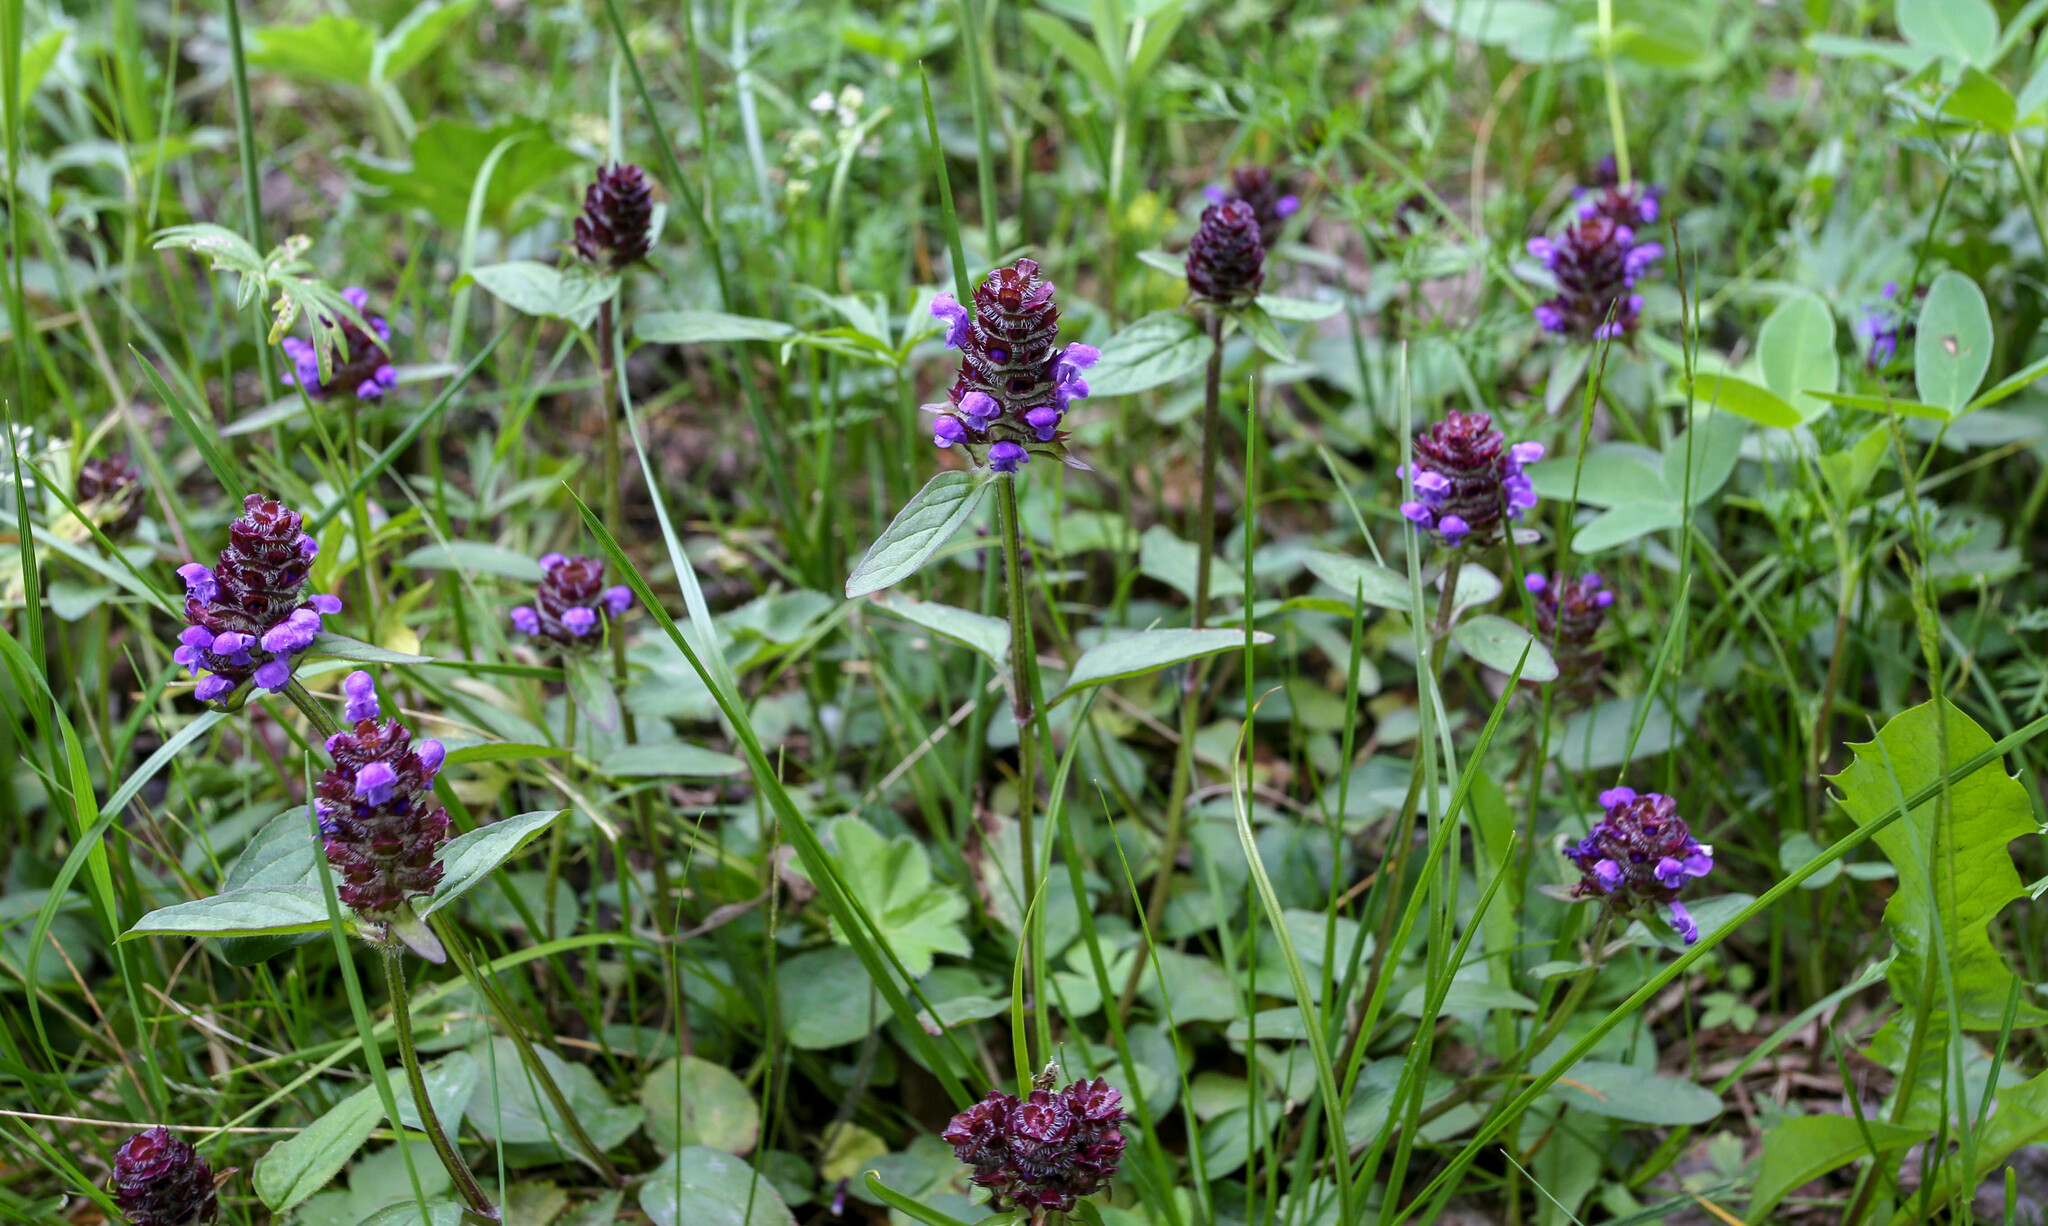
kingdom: Plantae
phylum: Tracheophyta
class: Magnoliopsida
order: Lamiales
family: Lamiaceae
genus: Prunella
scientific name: Prunella vulgaris
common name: Heal-all
